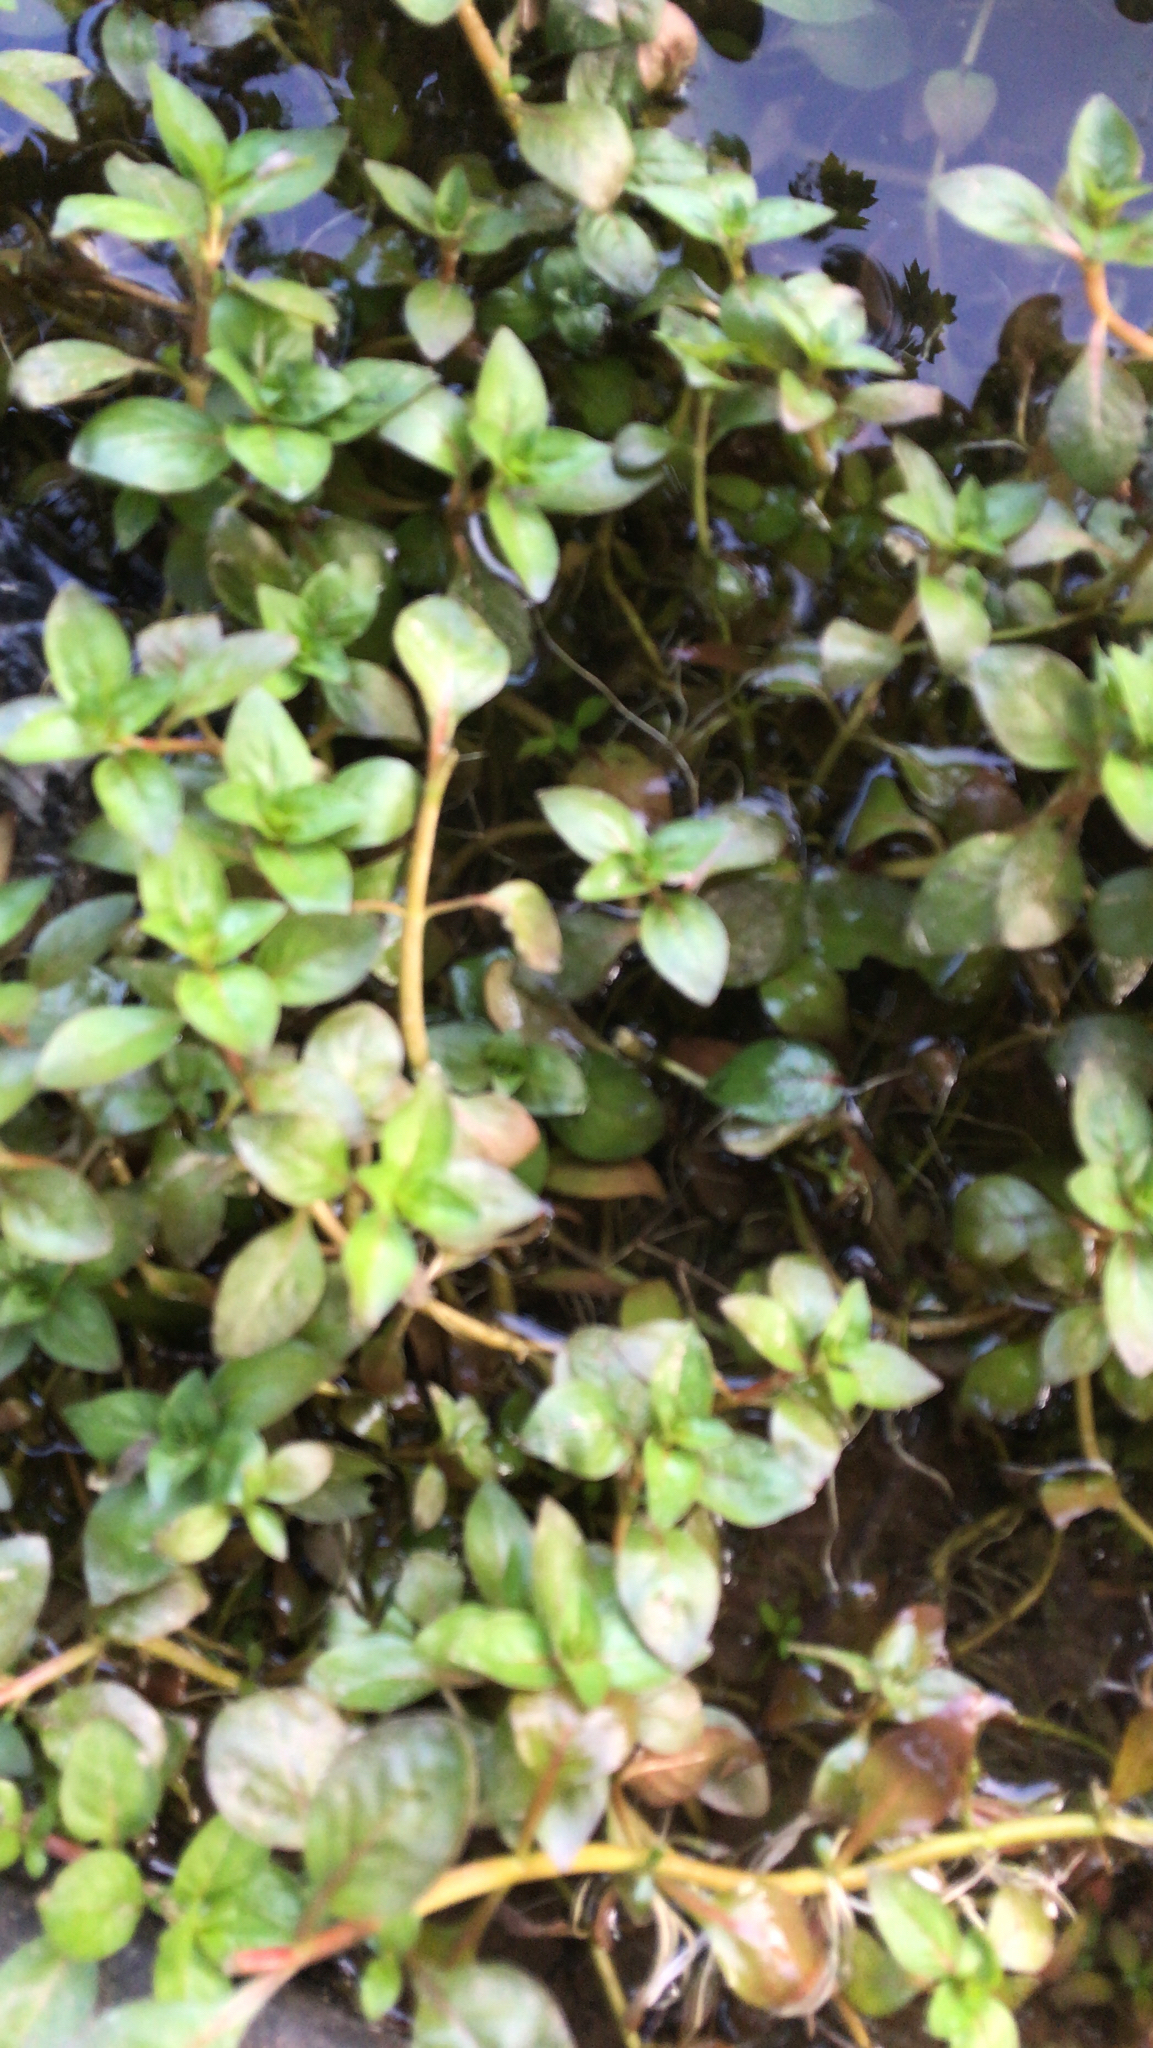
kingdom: Plantae
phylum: Tracheophyta
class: Magnoliopsida
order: Myrtales
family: Onagraceae
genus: Ludwigia
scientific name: Ludwigia palustris
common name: Hampshire-purslane
